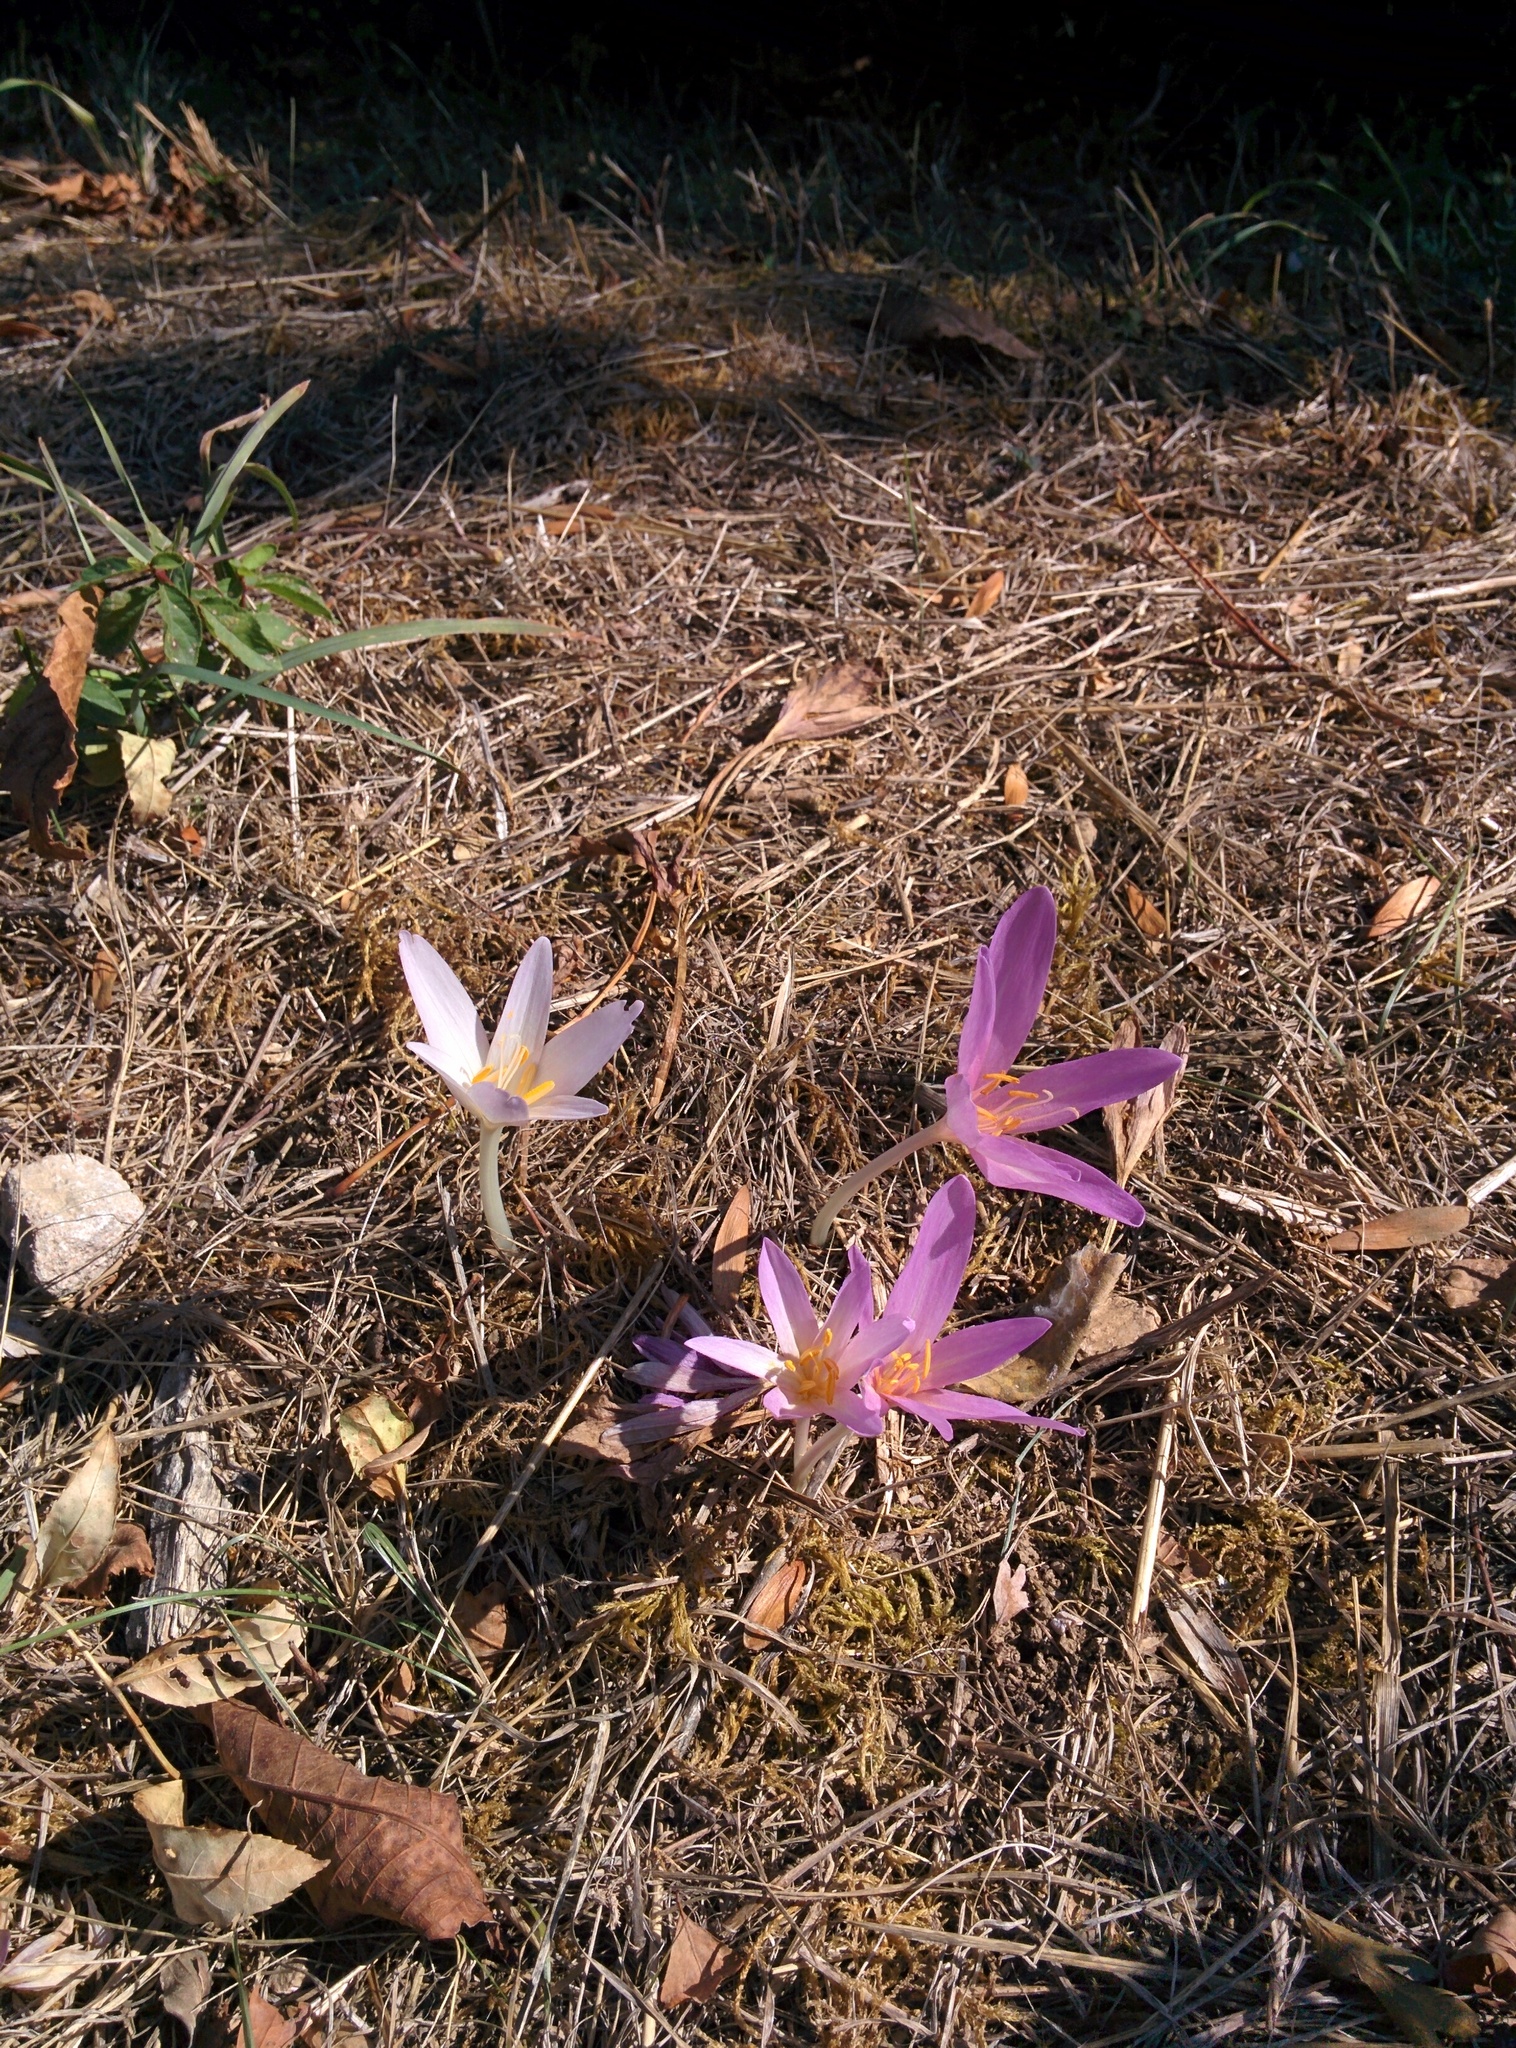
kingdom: Plantae
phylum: Tracheophyta
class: Liliopsida
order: Liliales
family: Colchicaceae
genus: Colchicum
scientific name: Colchicum autumnale
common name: Autumn crocus
